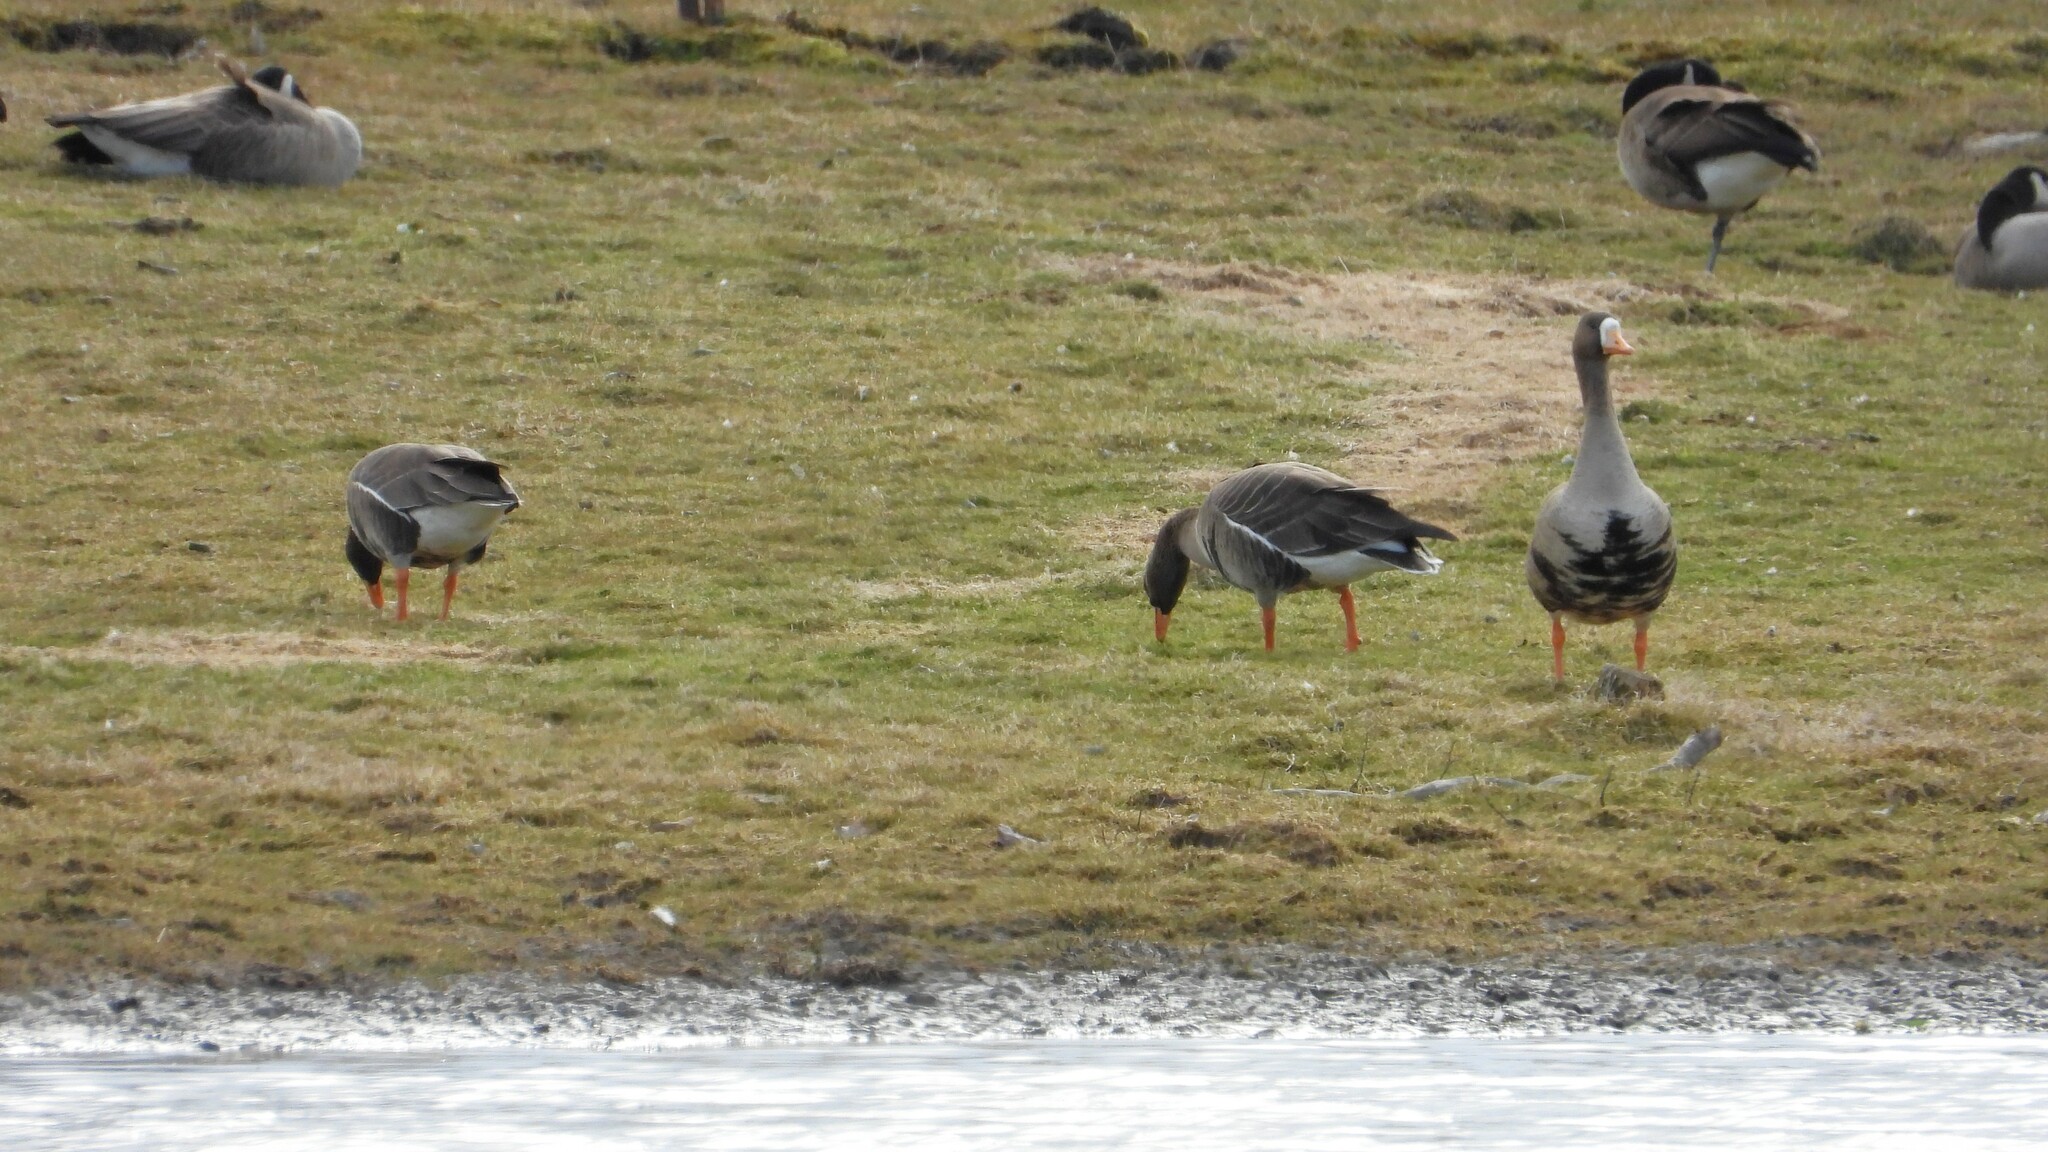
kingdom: Animalia
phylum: Chordata
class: Aves
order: Anseriformes
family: Anatidae
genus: Anser
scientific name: Anser albifrons
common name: Greater white-fronted goose
